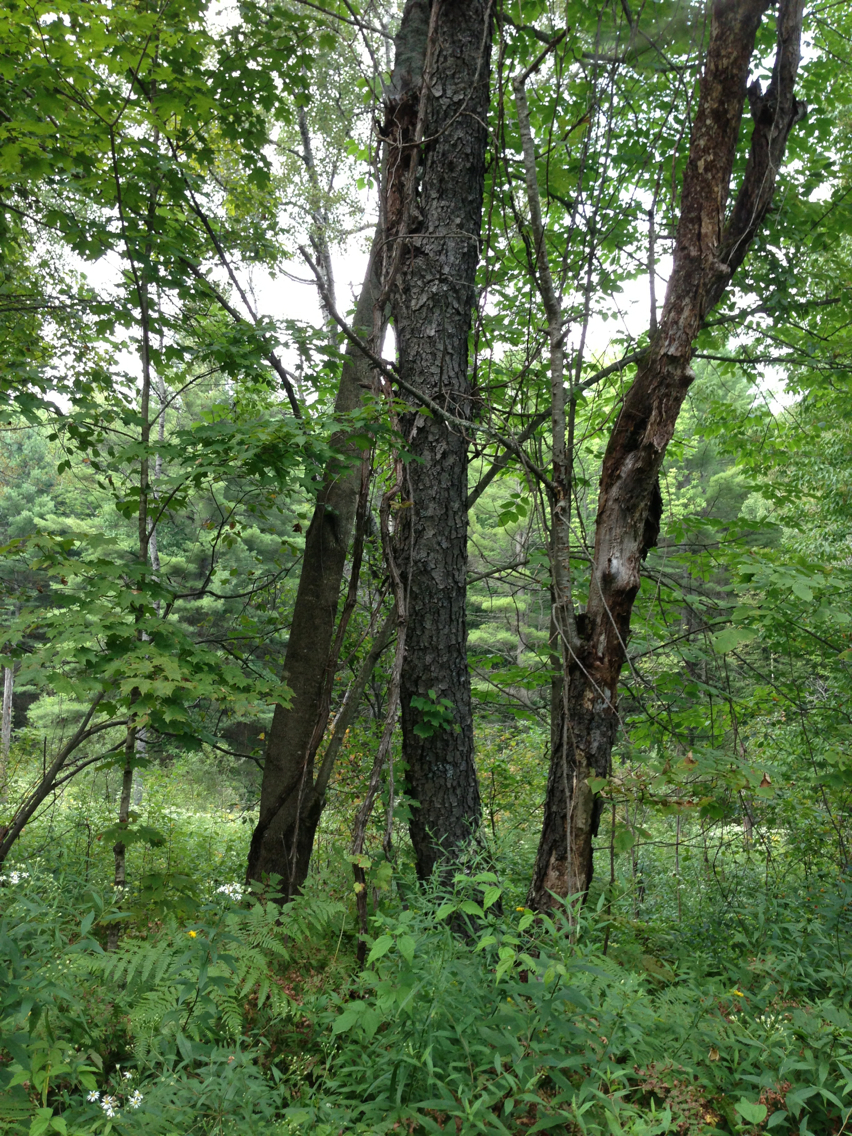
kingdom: Plantae
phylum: Tracheophyta
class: Magnoliopsida
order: Rosales
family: Rosaceae
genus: Prunus
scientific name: Prunus serotina
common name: Black cherry
